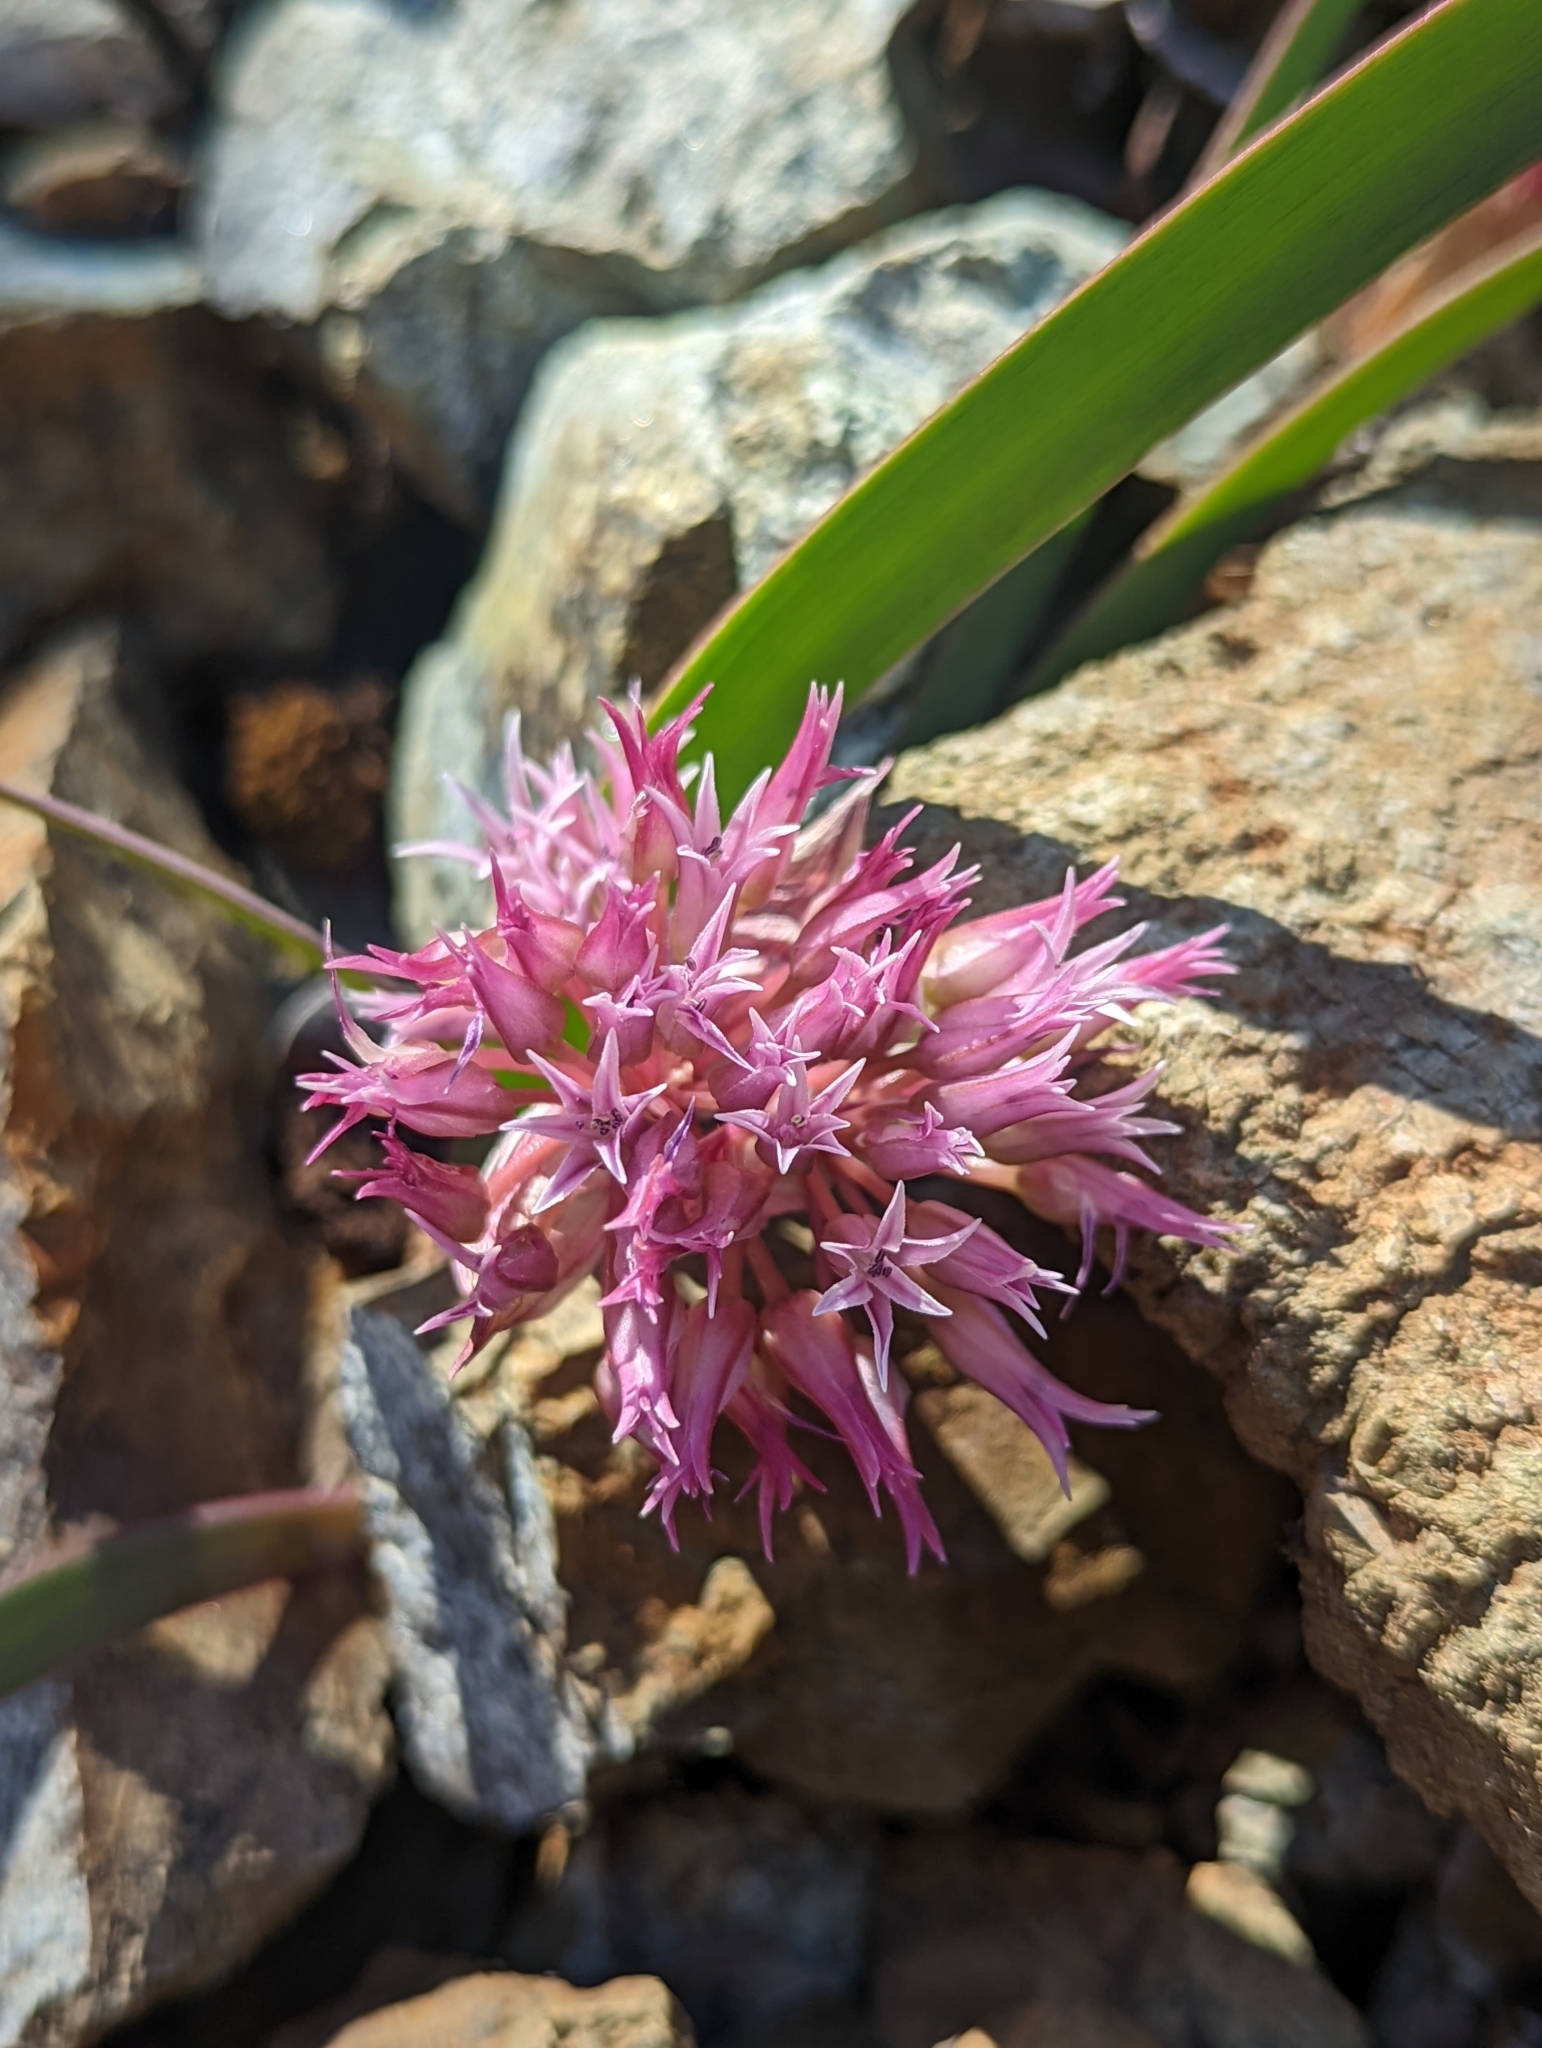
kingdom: Plantae
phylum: Tracheophyta
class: Liliopsida
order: Asparagales
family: Amaryllidaceae
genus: Allium
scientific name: Allium falcifolium
